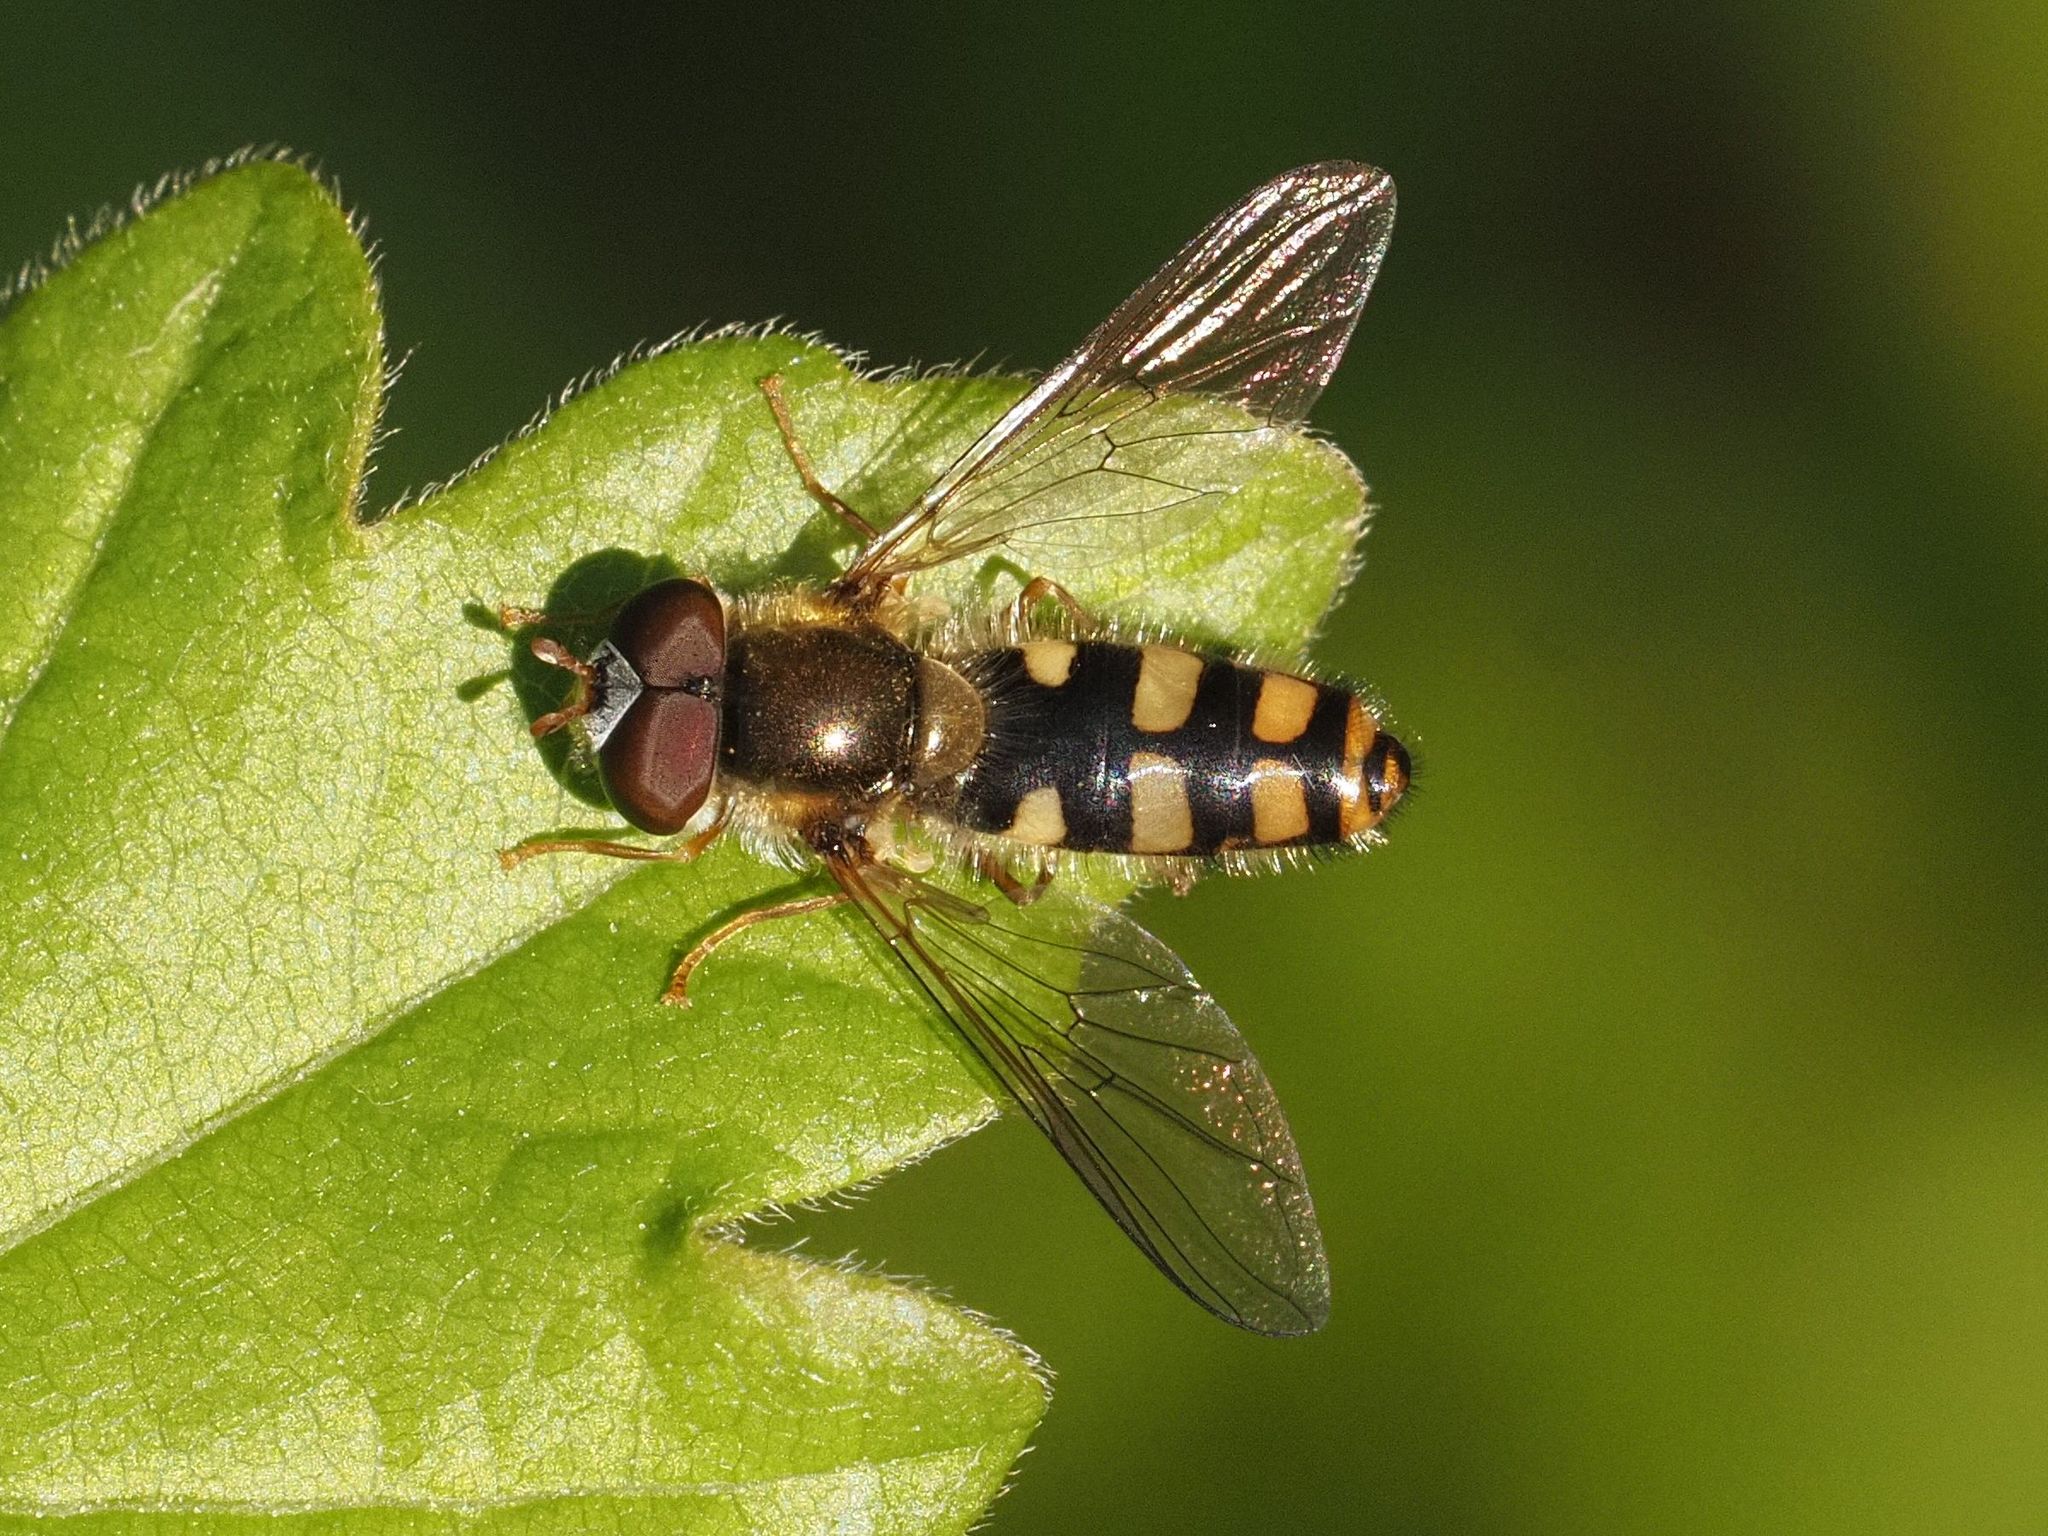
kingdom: Animalia
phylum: Arthropoda
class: Insecta
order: Diptera
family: Syrphidae
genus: Epistrophella
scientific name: Epistrophella euchromus
